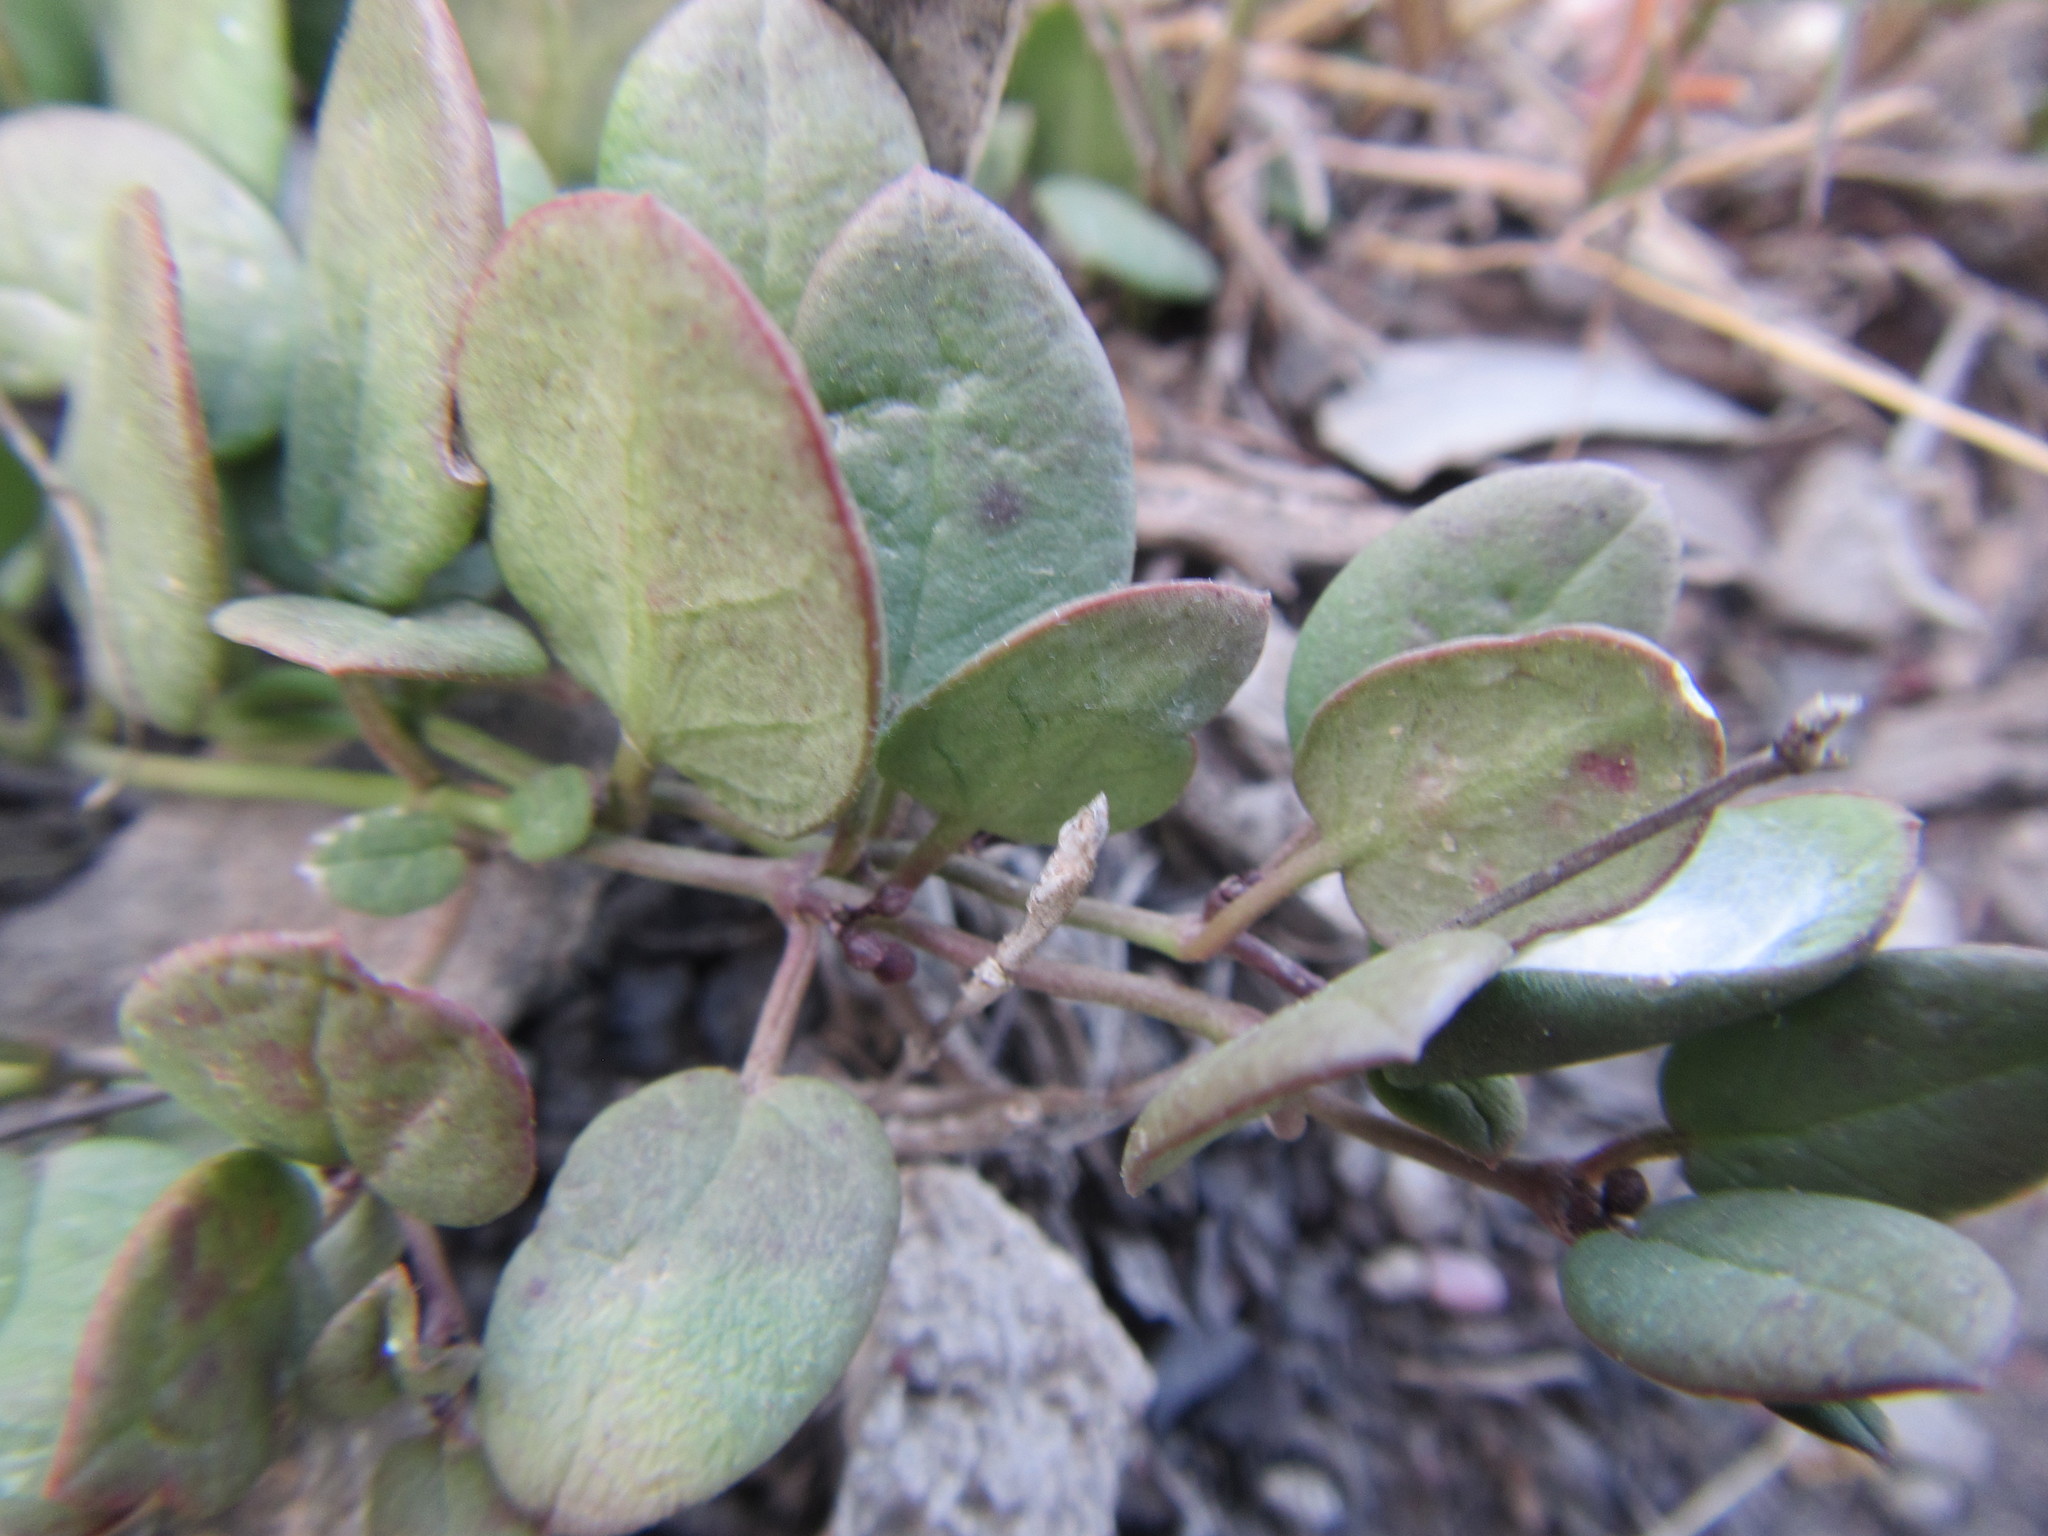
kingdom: Plantae
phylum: Tracheophyta
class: Magnoliopsida
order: Gentianales
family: Apocynaceae
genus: Cynanchum
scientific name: Cynanchum zeyheri
